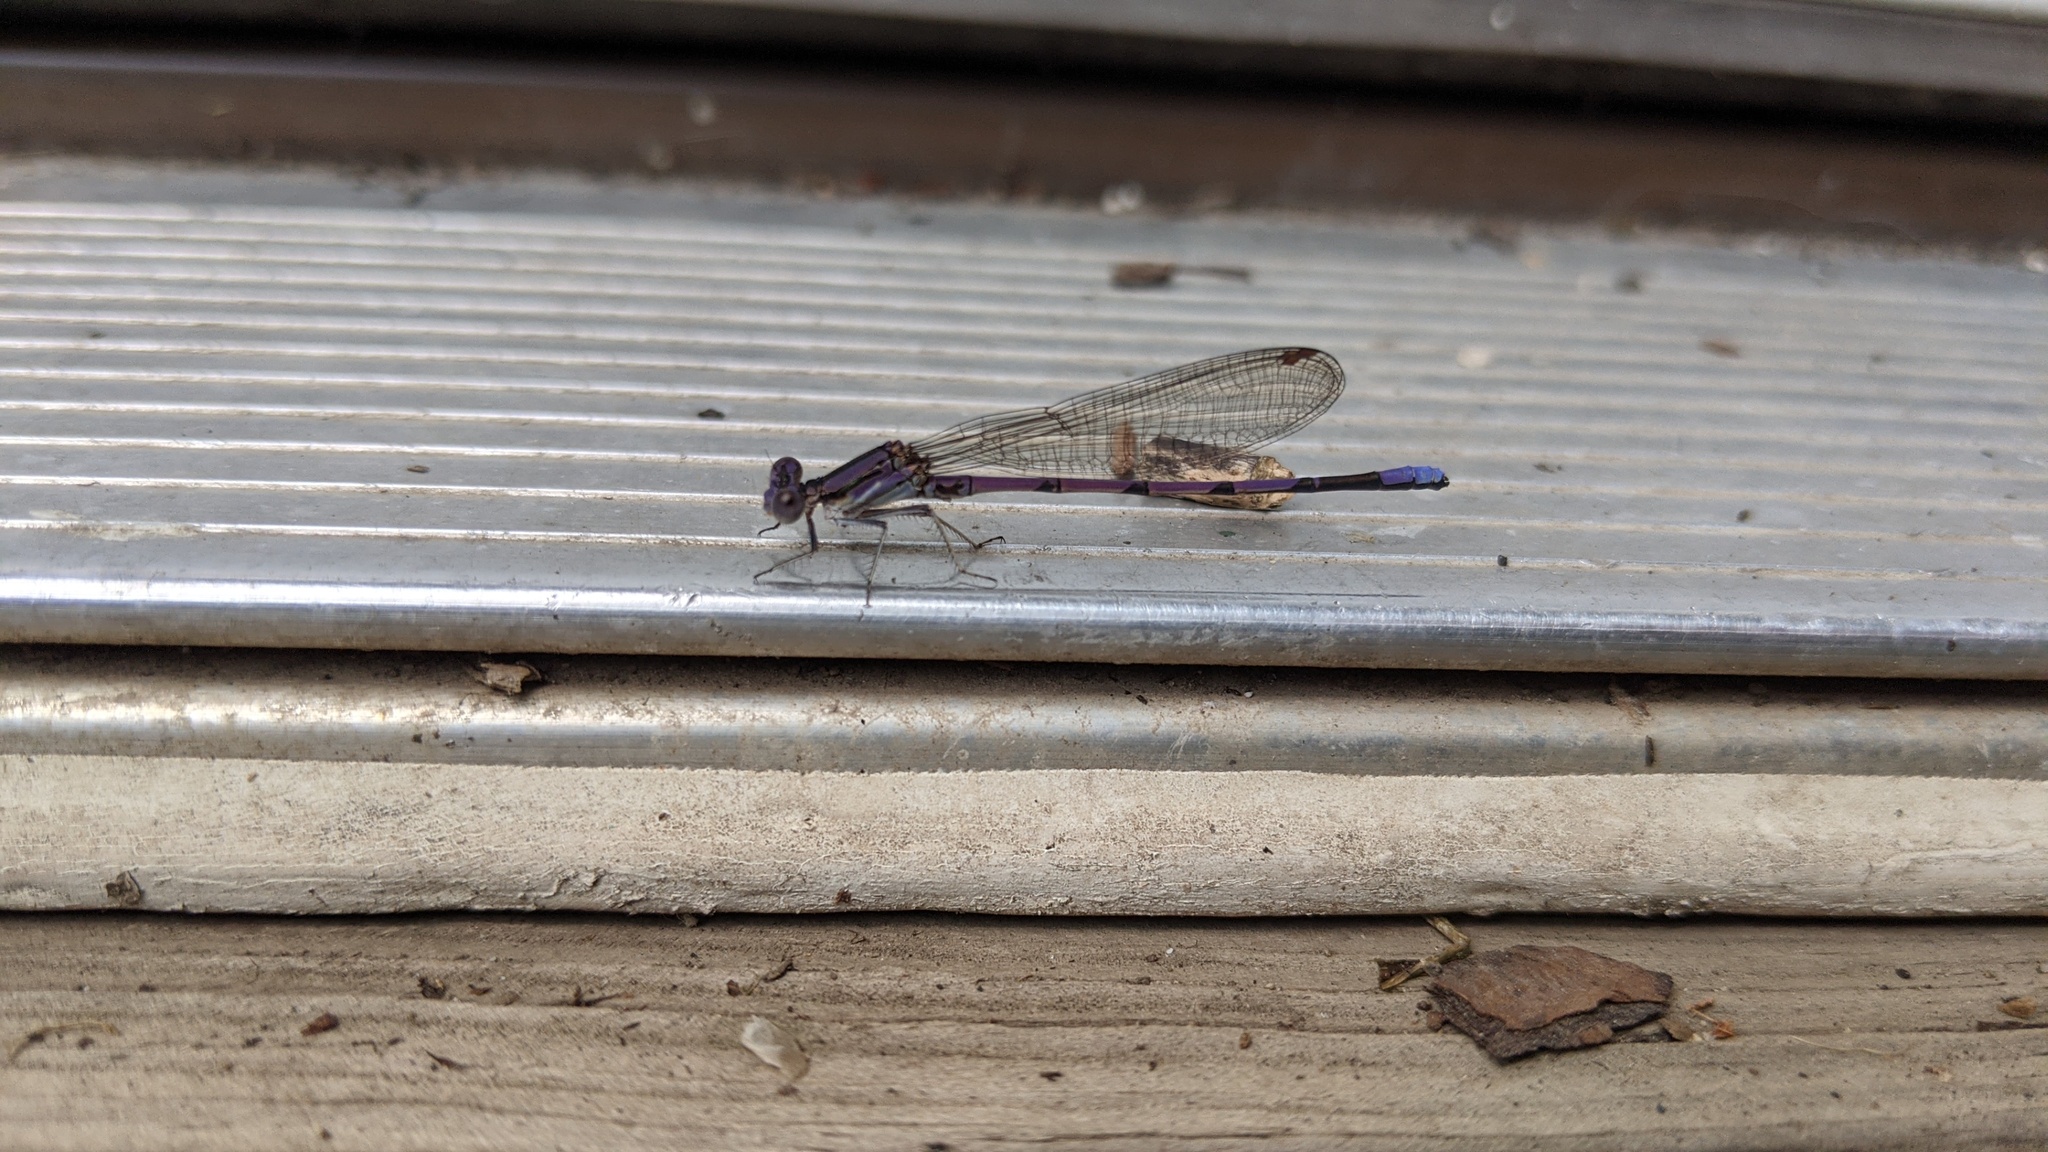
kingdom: Animalia
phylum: Arthropoda
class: Insecta
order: Odonata
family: Coenagrionidae
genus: Argia
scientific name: Argia fumipennis
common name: Variable dancer
